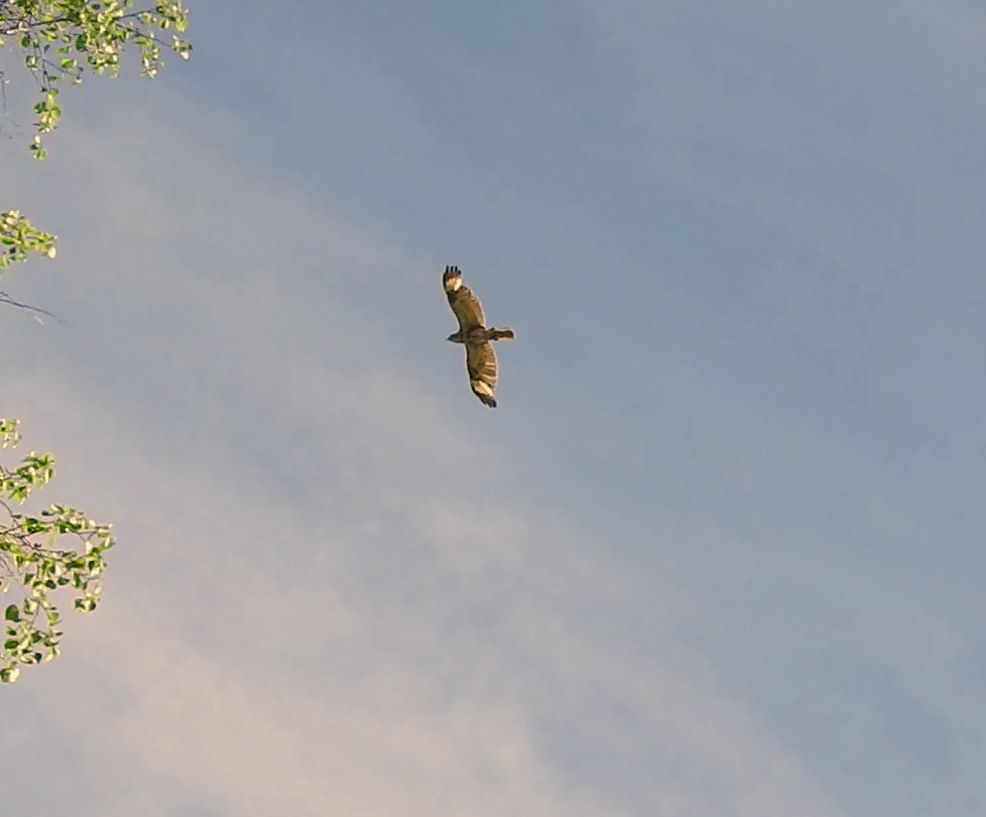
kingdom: Animalia
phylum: Chordata
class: Aves
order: Accipitriformes
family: Accipitridae
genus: Buteo
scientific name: Buteo japonicus
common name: Eastern buzzard
